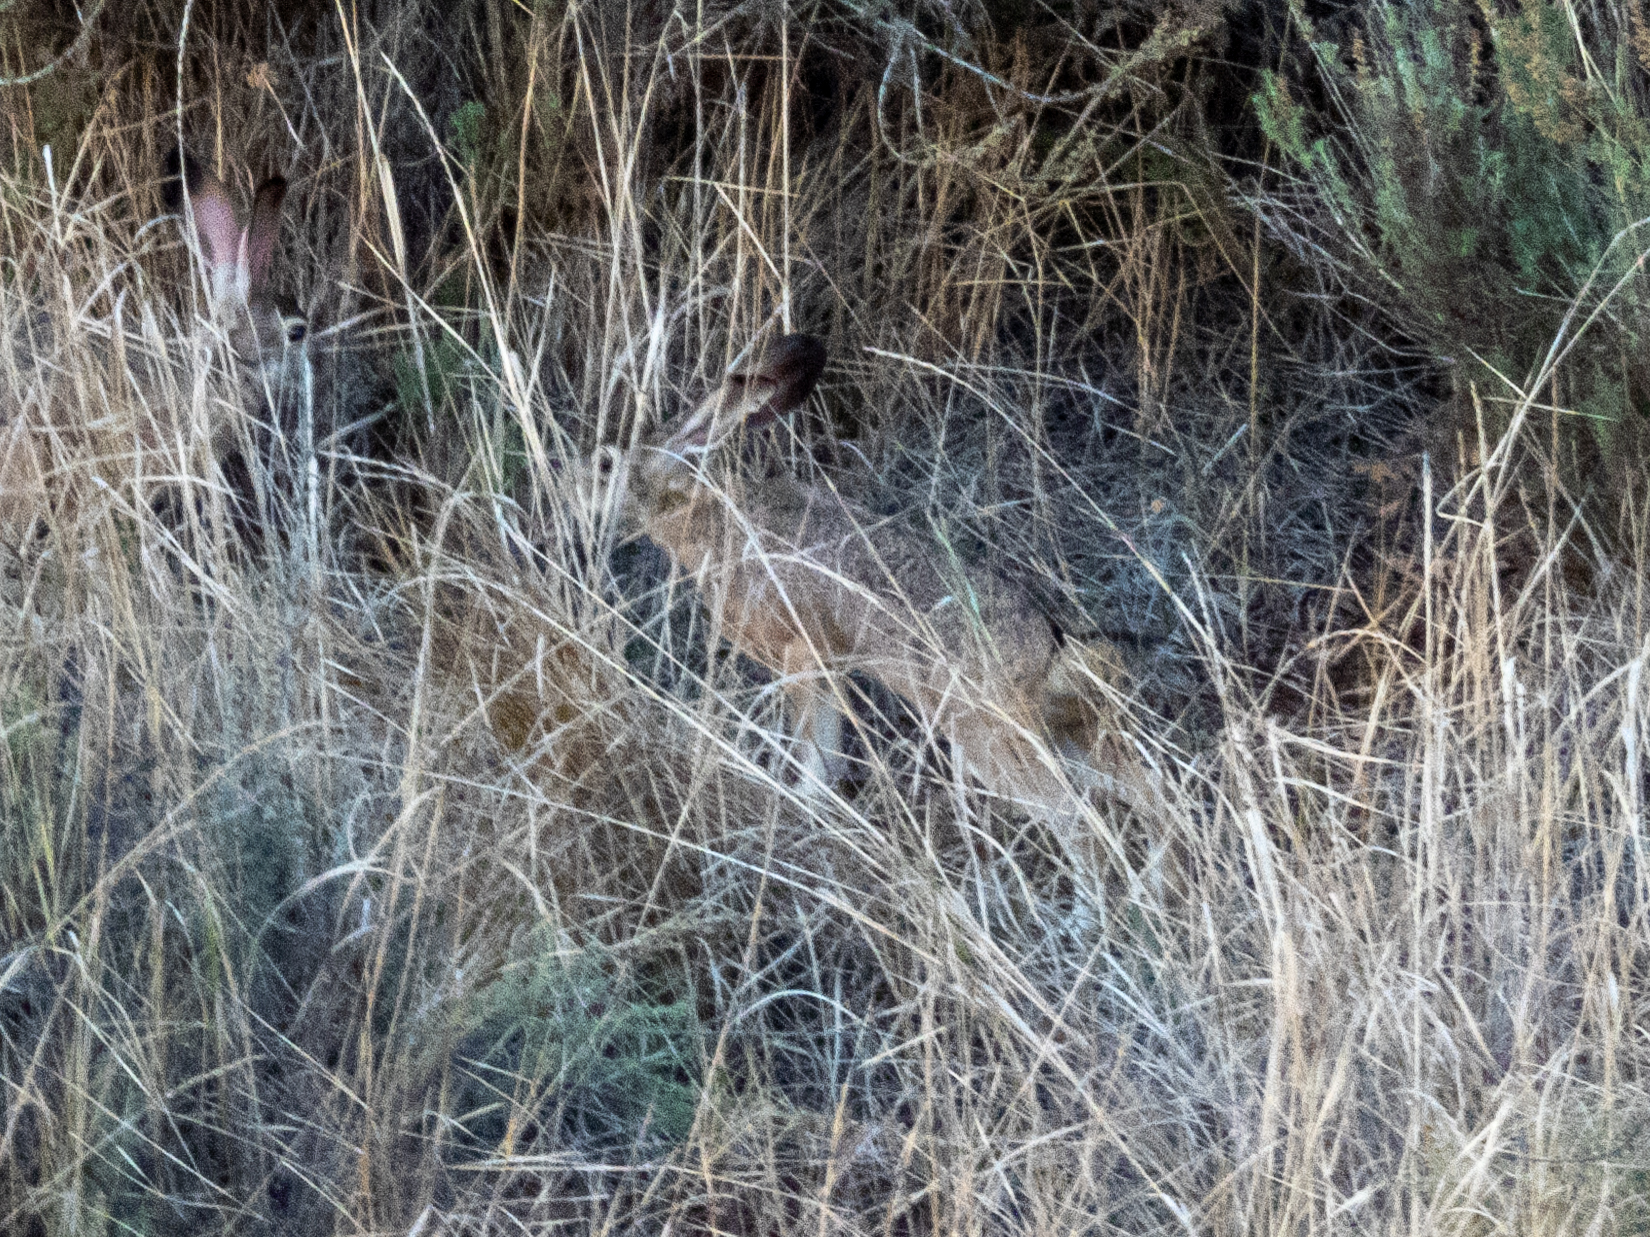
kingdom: Animalia
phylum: Chordata
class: Mammalia
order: Lagomorpha
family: Leporidae
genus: Lepus
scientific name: Lepus californicus
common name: Black-tailed jackrabbit
